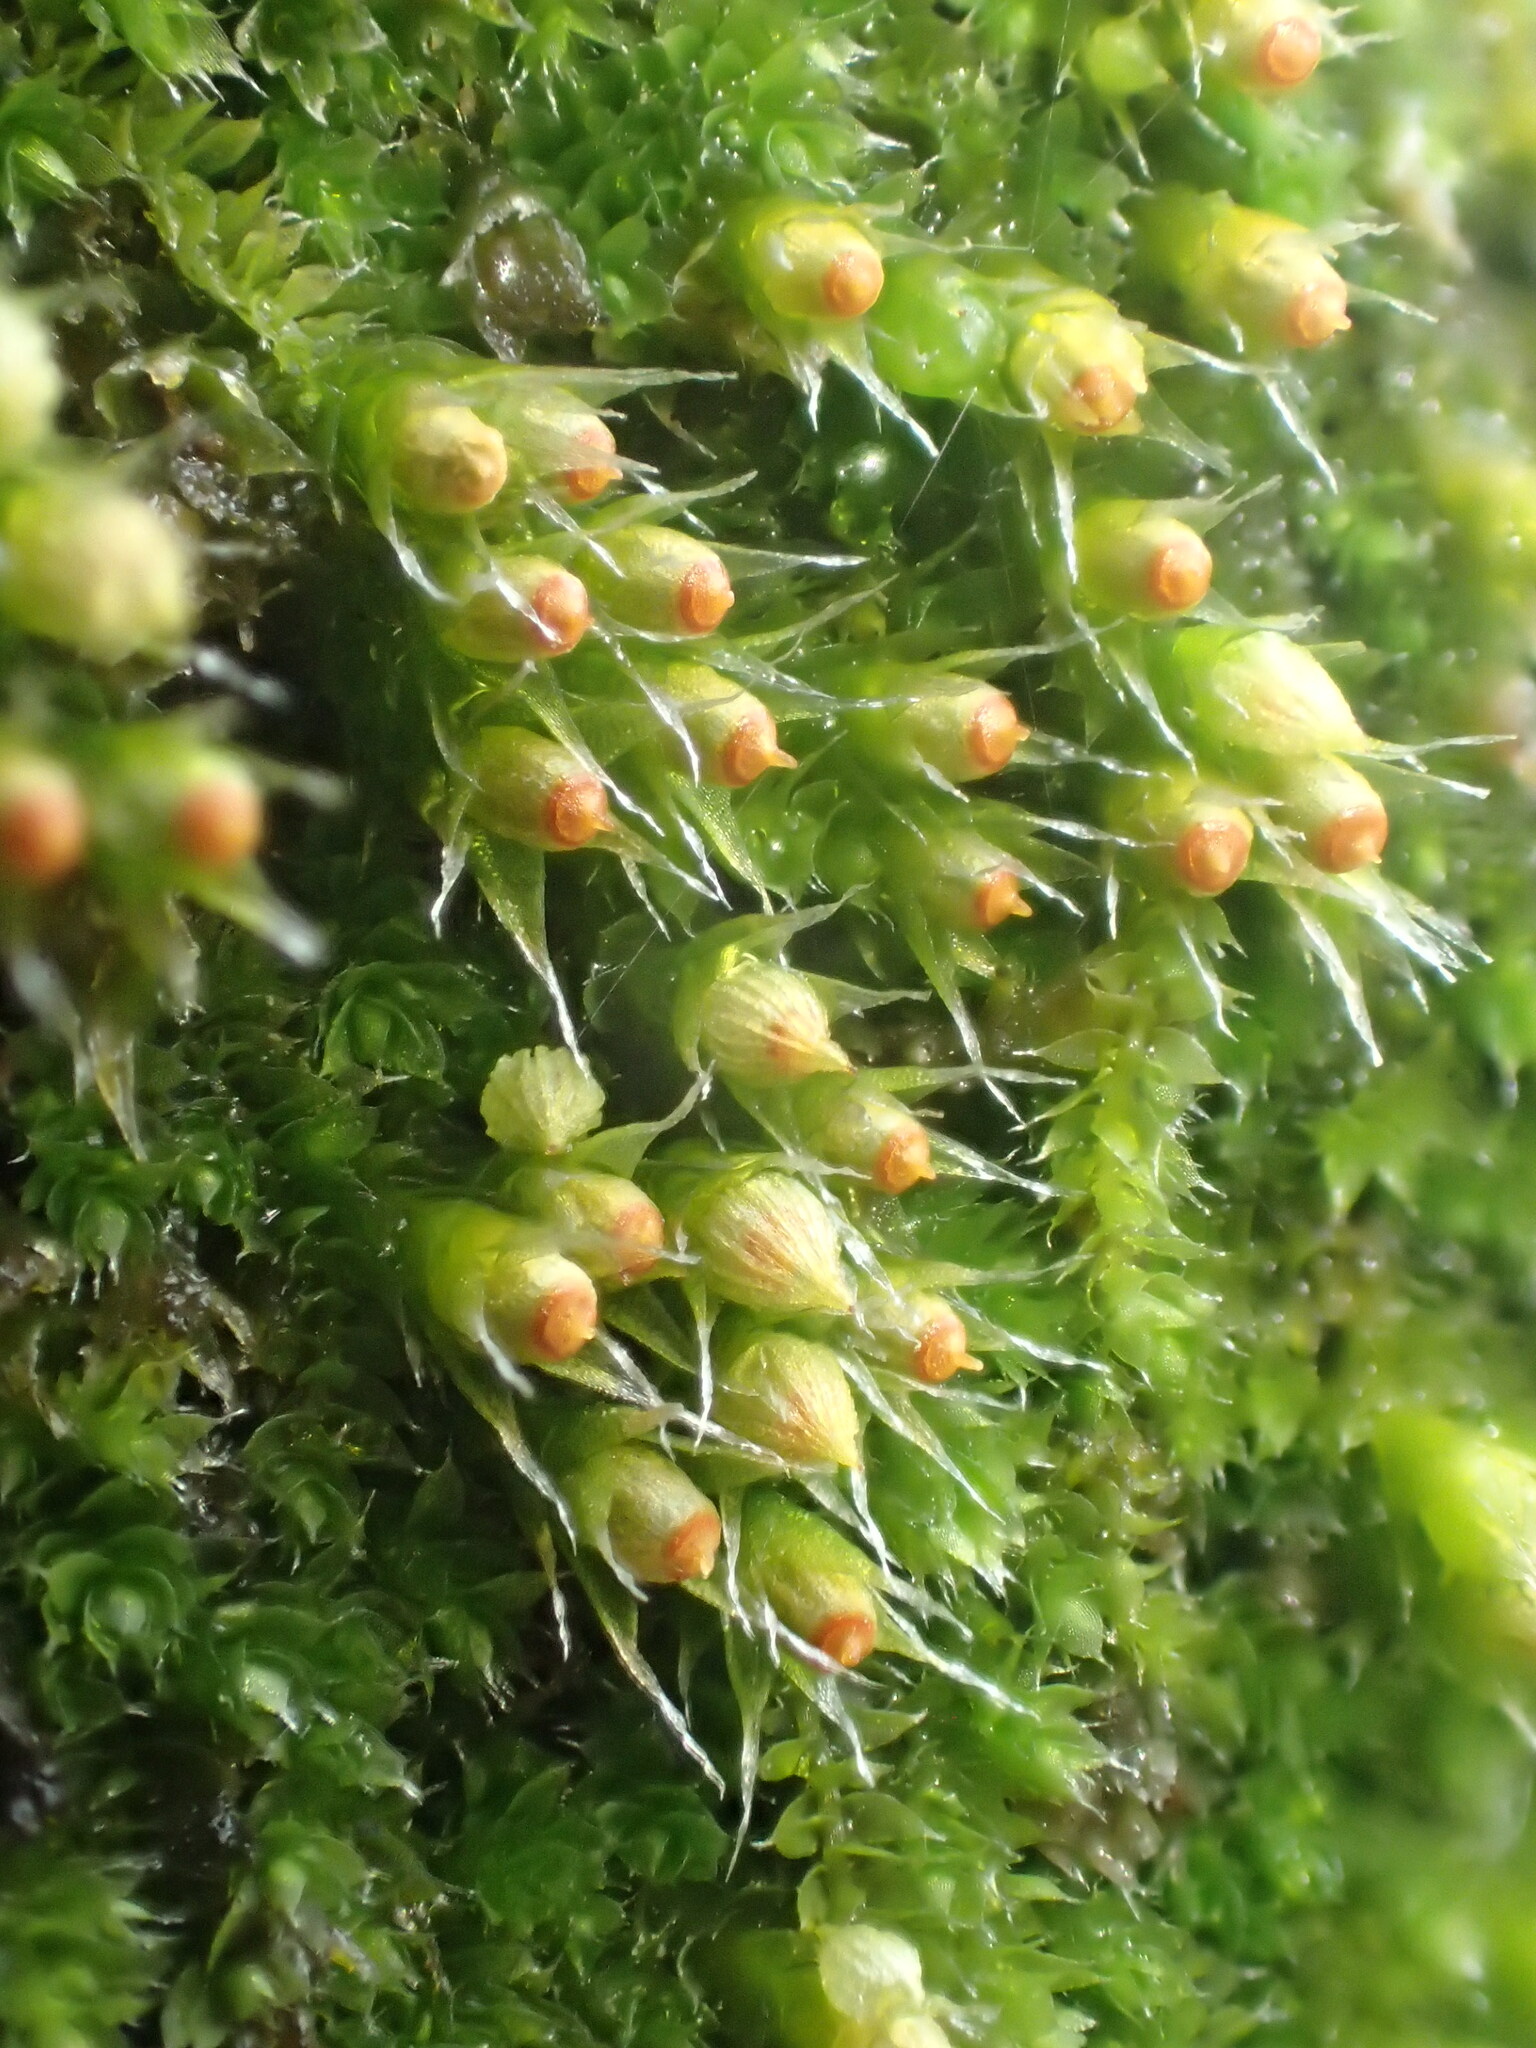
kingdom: Plantae
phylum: Bryophyta
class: Bryopsida
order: Dicranales
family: Erpodiaceae
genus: Venturiella
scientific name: Venturiella sinensis
